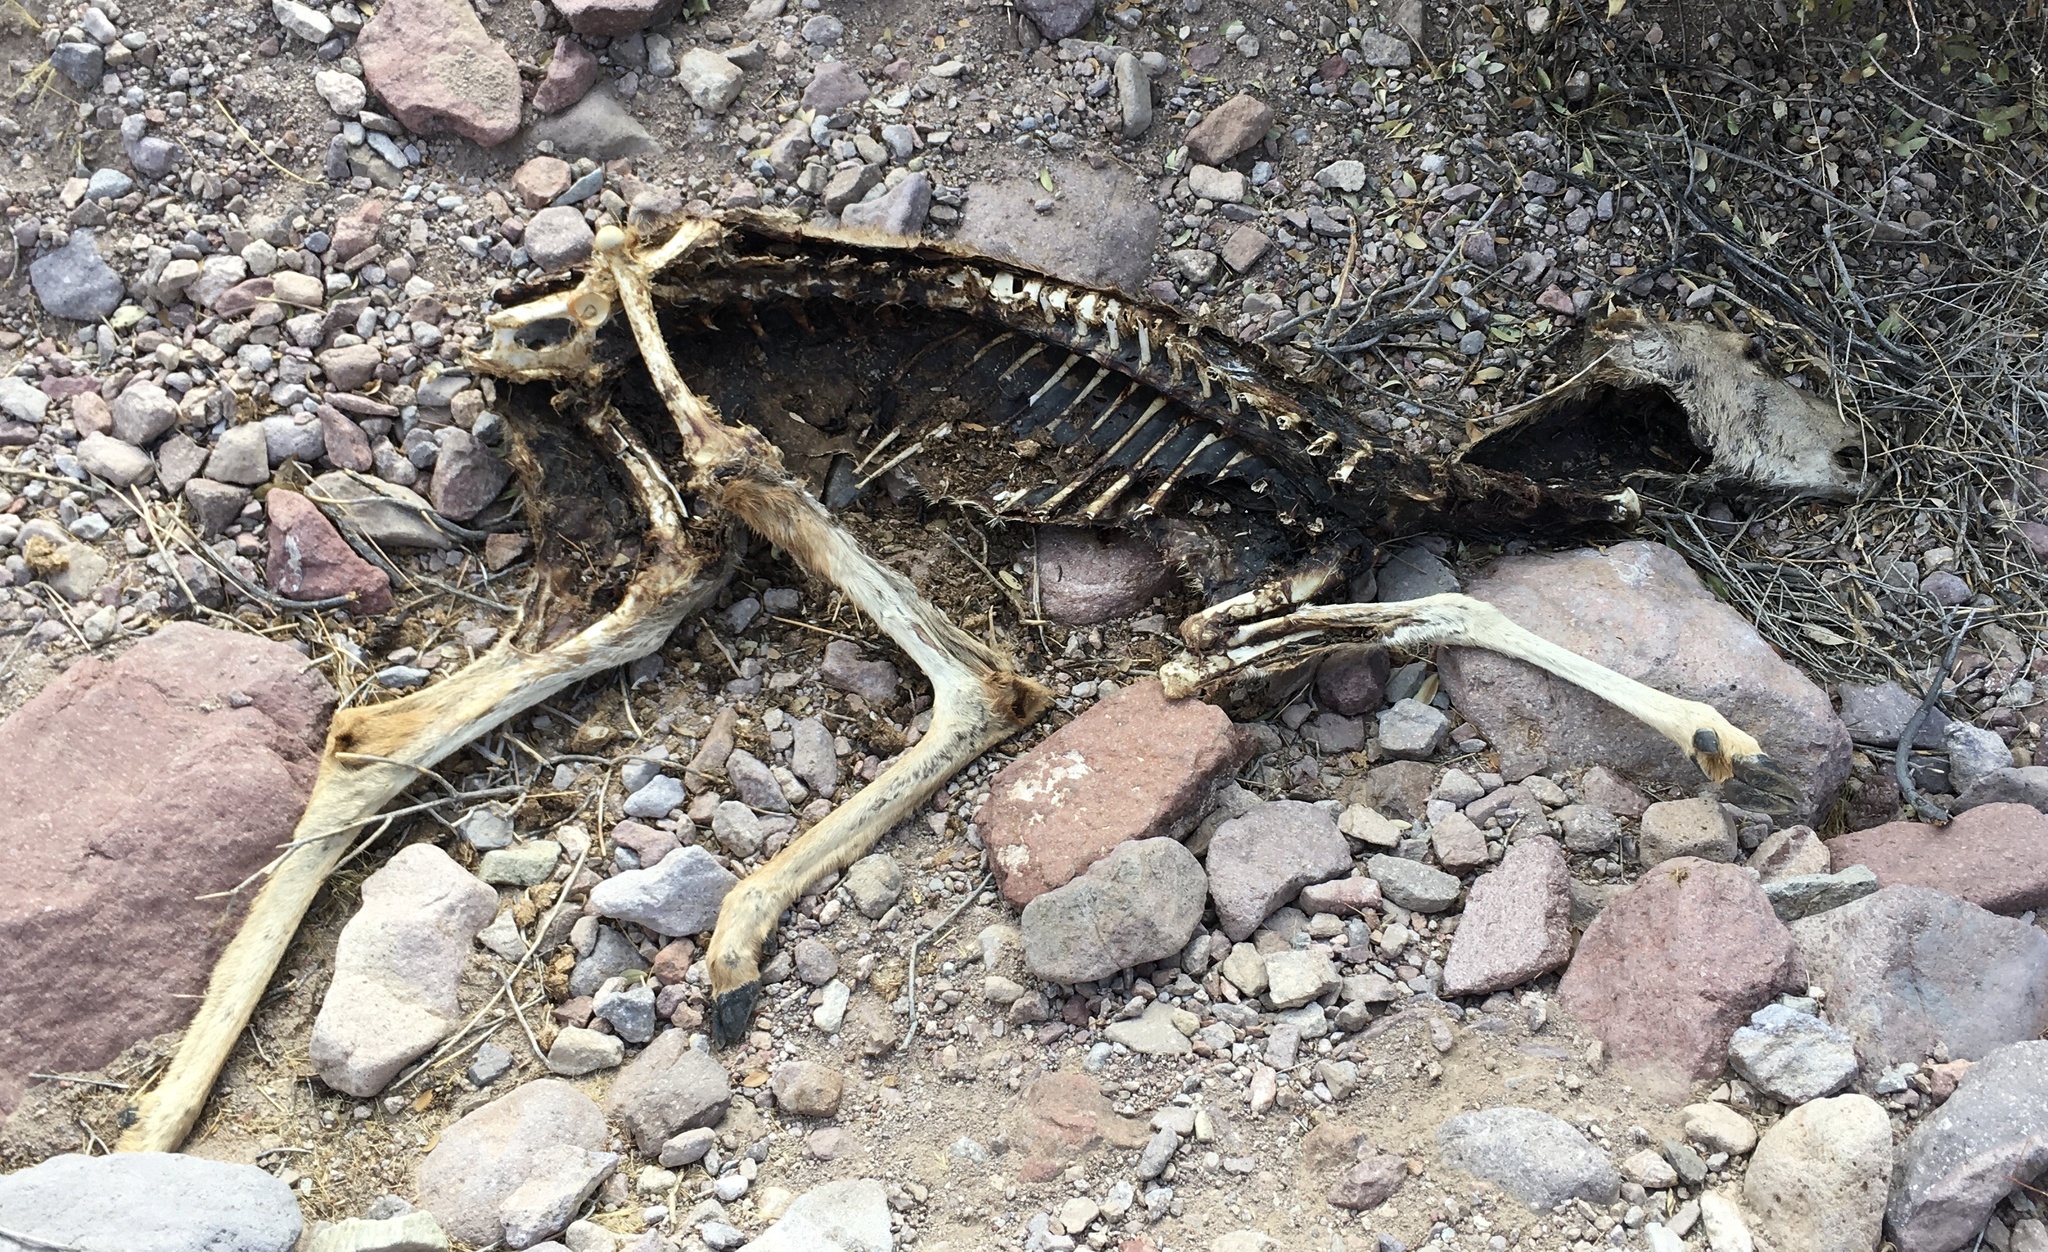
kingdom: Animalia
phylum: Chordata
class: Mammalia
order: Artiodactyla
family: Cervidae
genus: Odocoileus
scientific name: Odocoileus hemionus
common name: Mule deer
